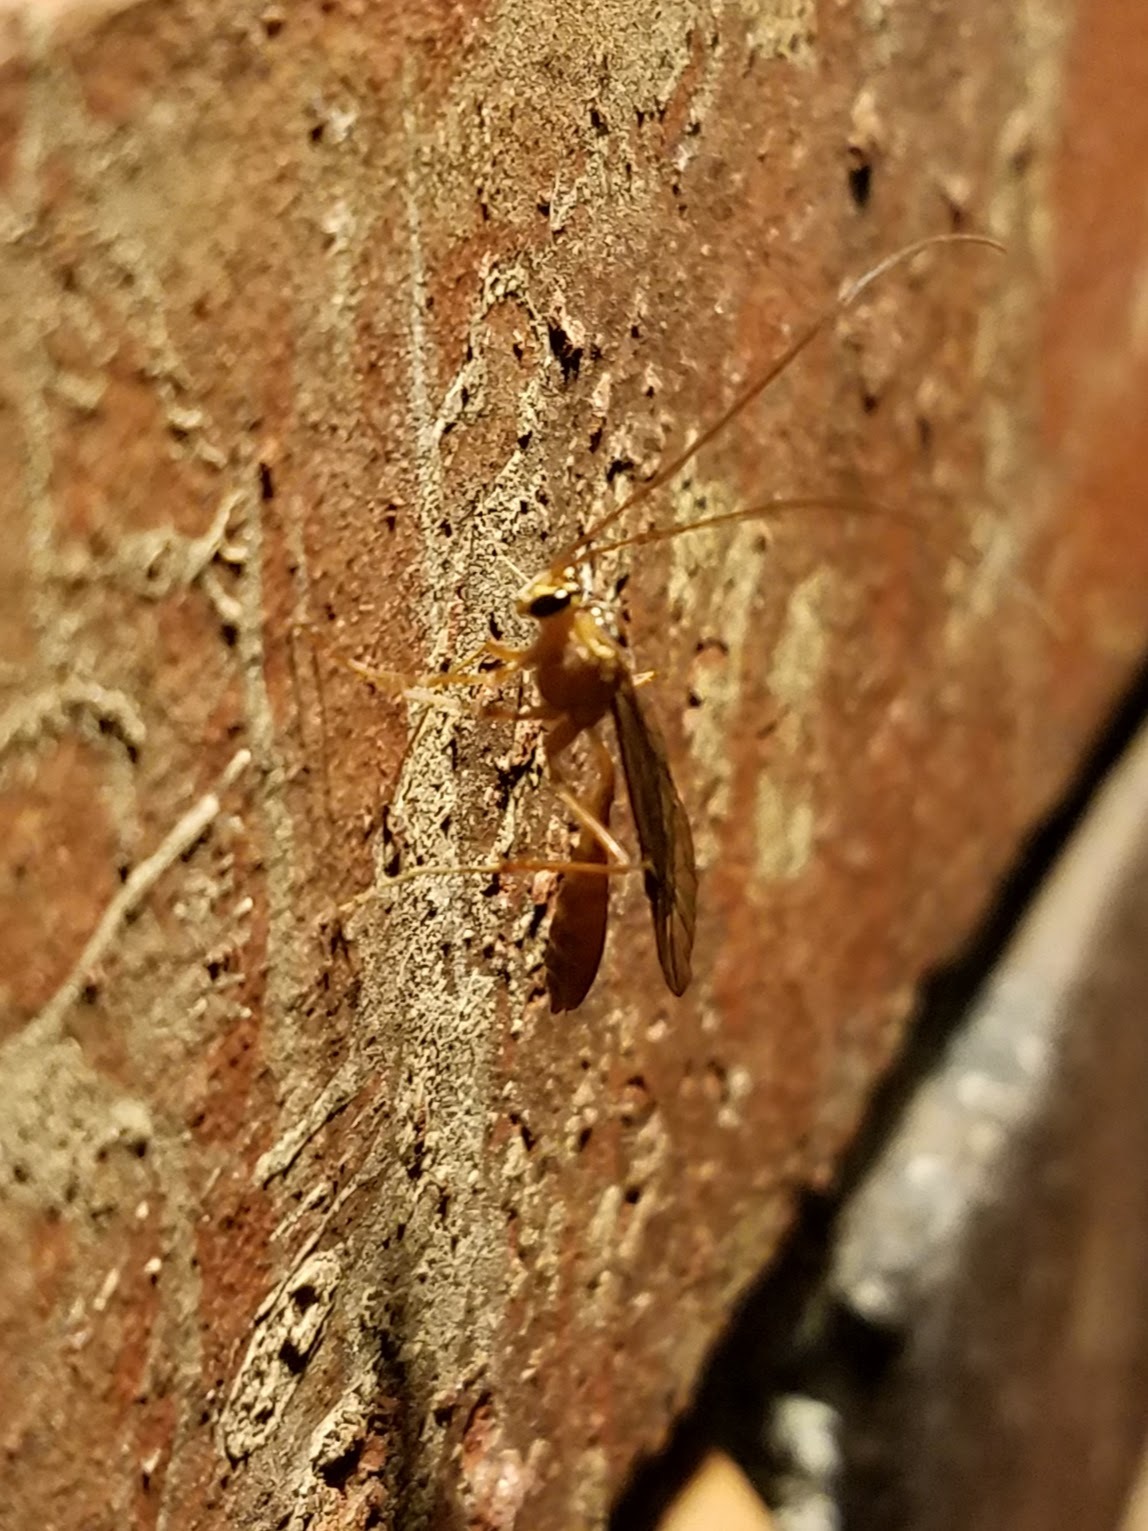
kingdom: Animalia
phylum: Arthropoda
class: Insecta
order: Hymenoptera
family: Ichneumonidae
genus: Ophion
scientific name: Ophion
